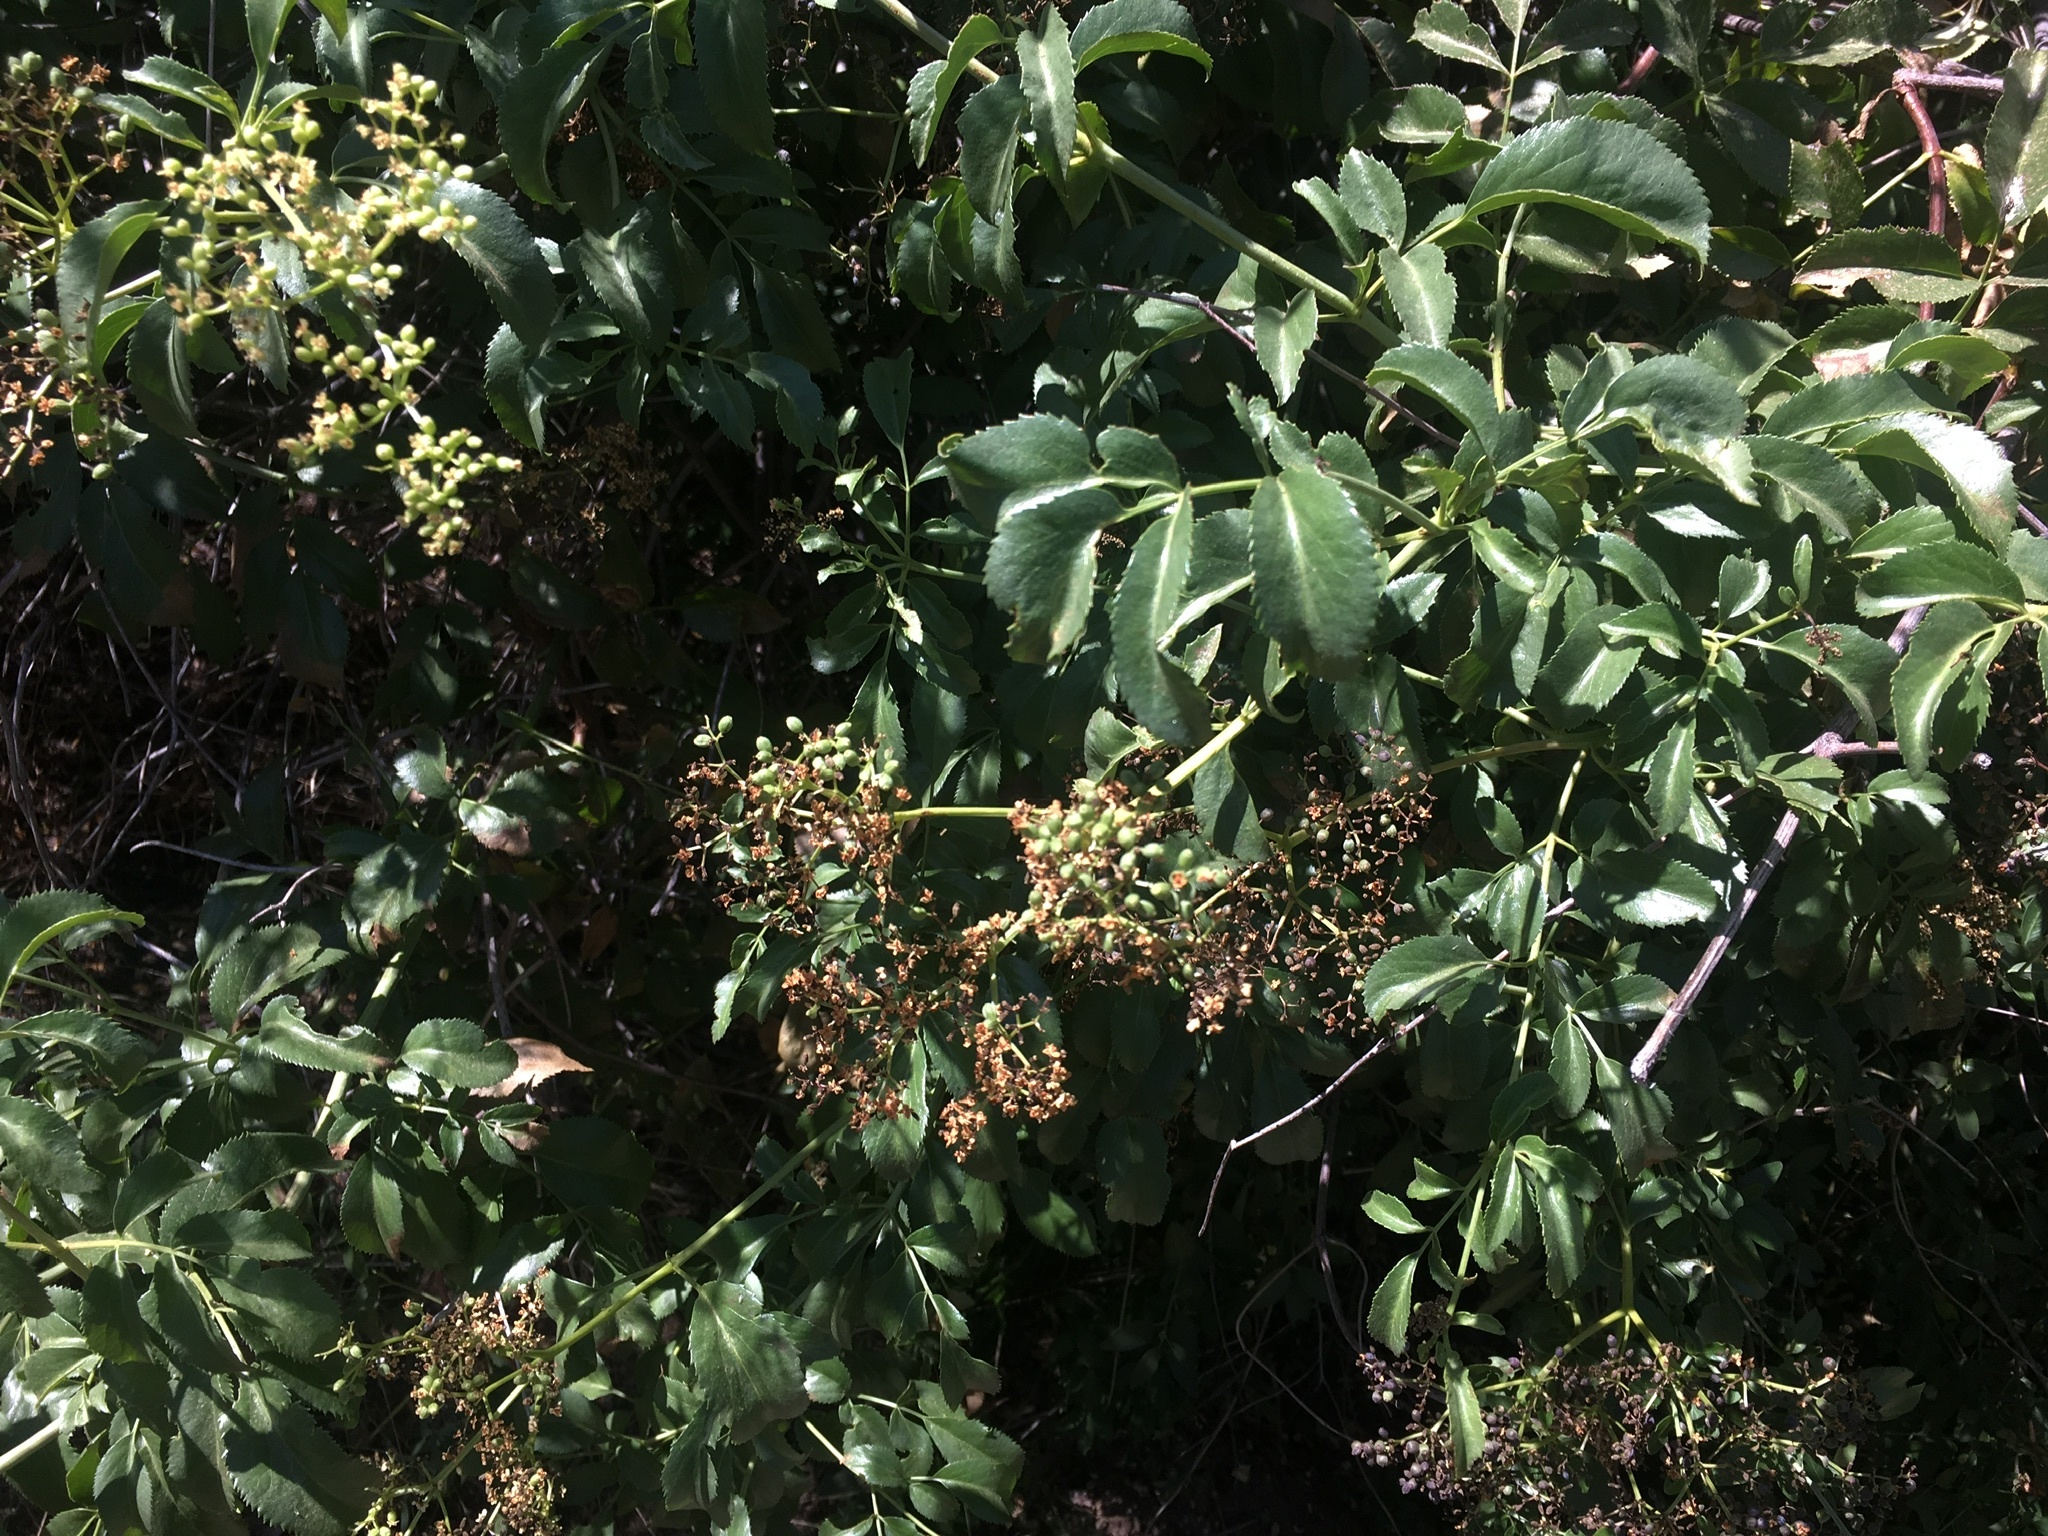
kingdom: Plantae
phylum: Tracheophyta
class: Magnoliopsida
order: Dipsacales
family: Viburnaceae
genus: Sambucus
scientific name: Sambucus cerulea
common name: Blue elder
